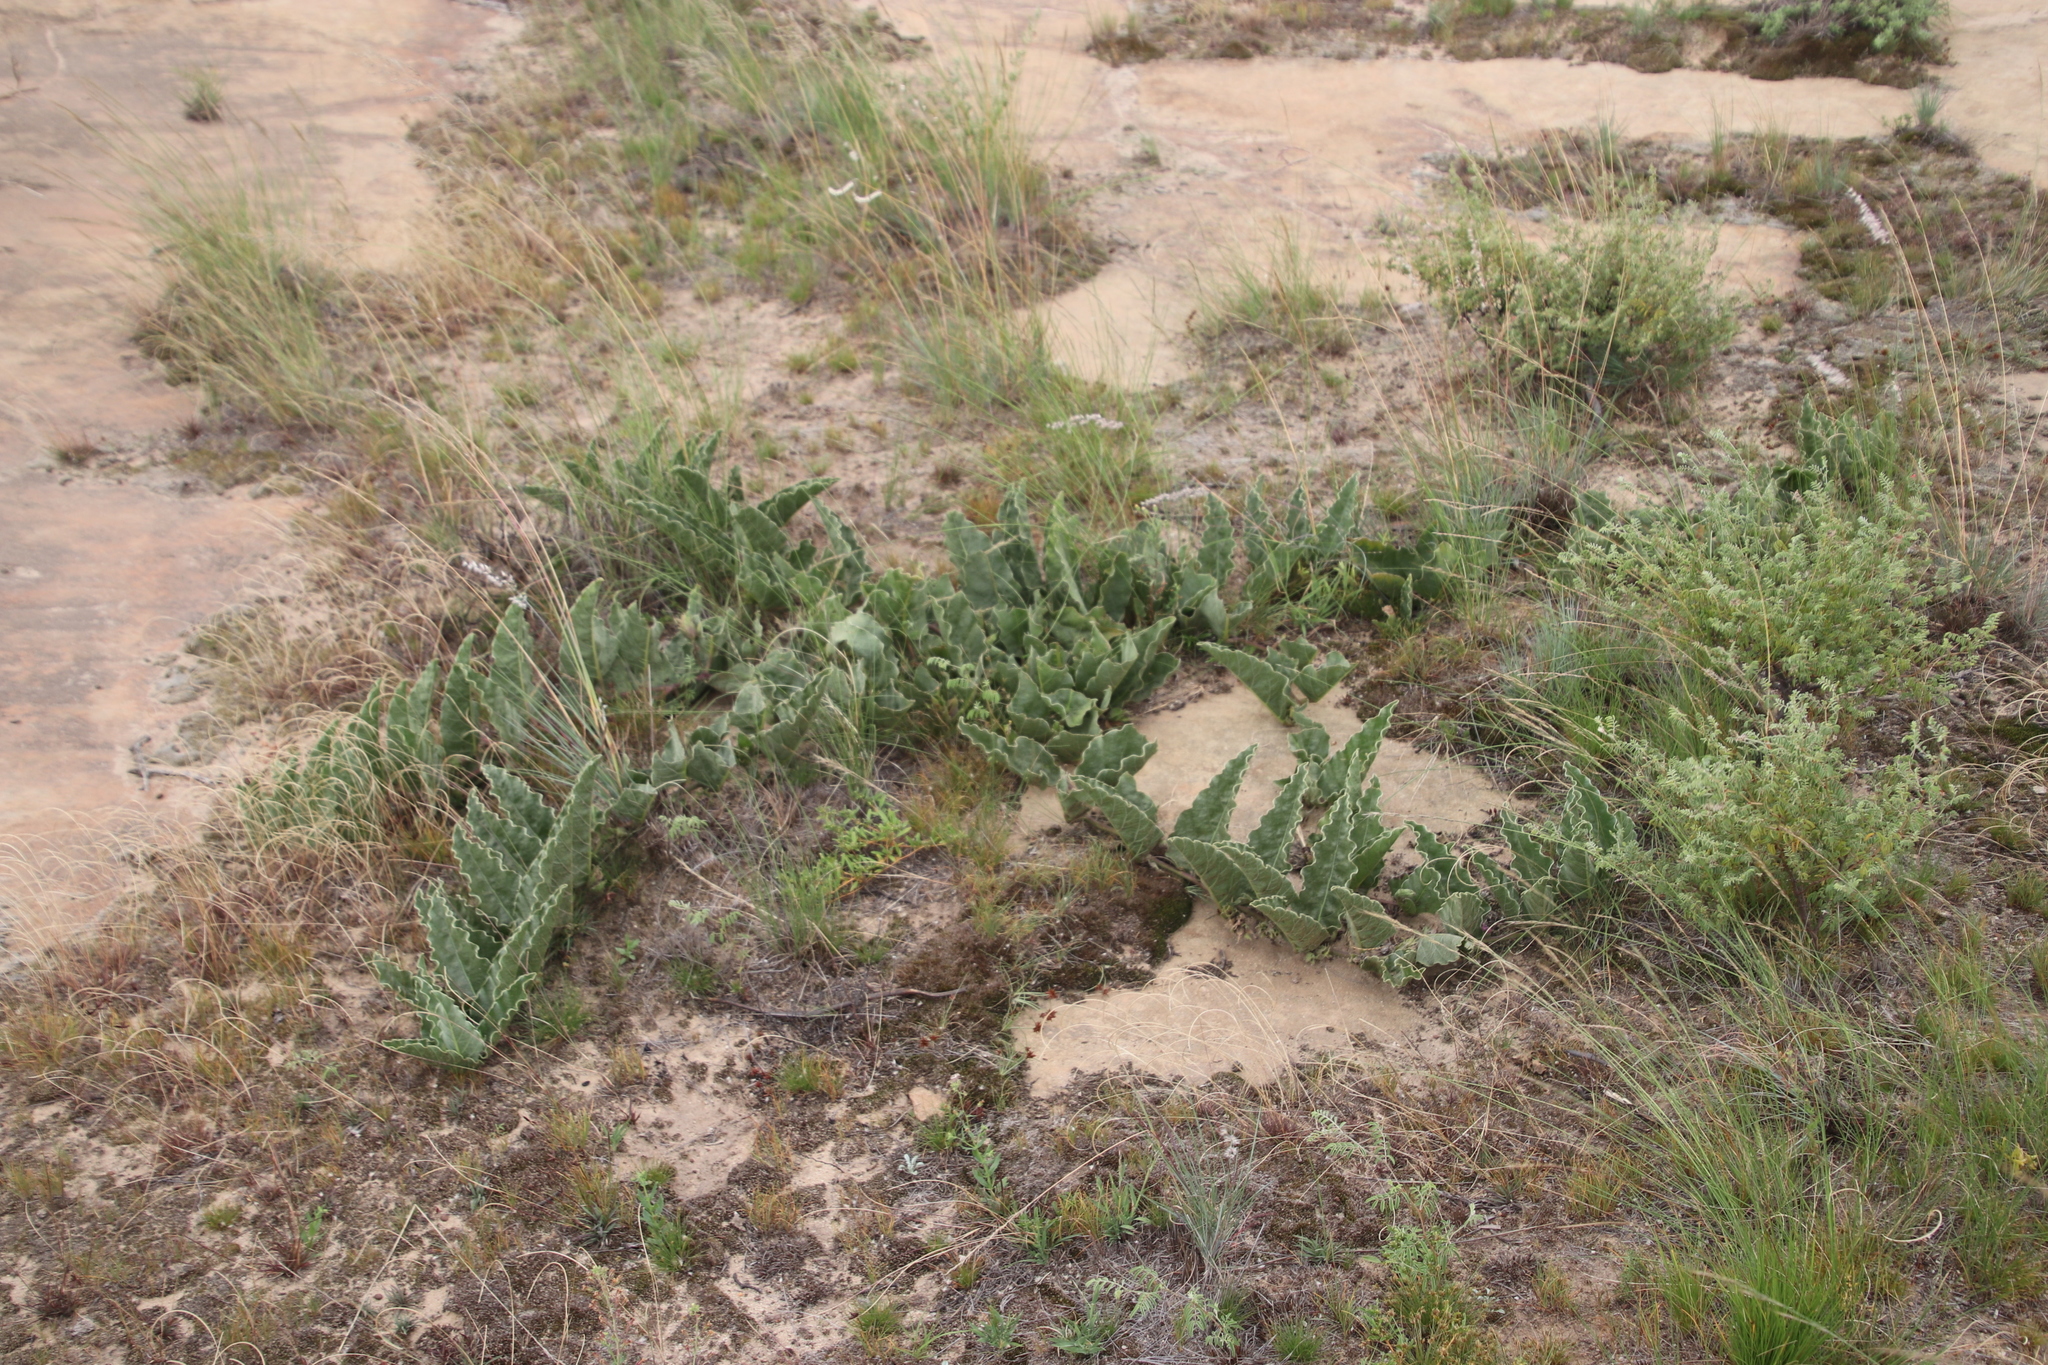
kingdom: Plantae
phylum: Tracheophyta
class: Magnoliopsida
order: Solanales
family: Convolvulaceae
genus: Ipomoea
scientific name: Ipomoea ommanneyi
